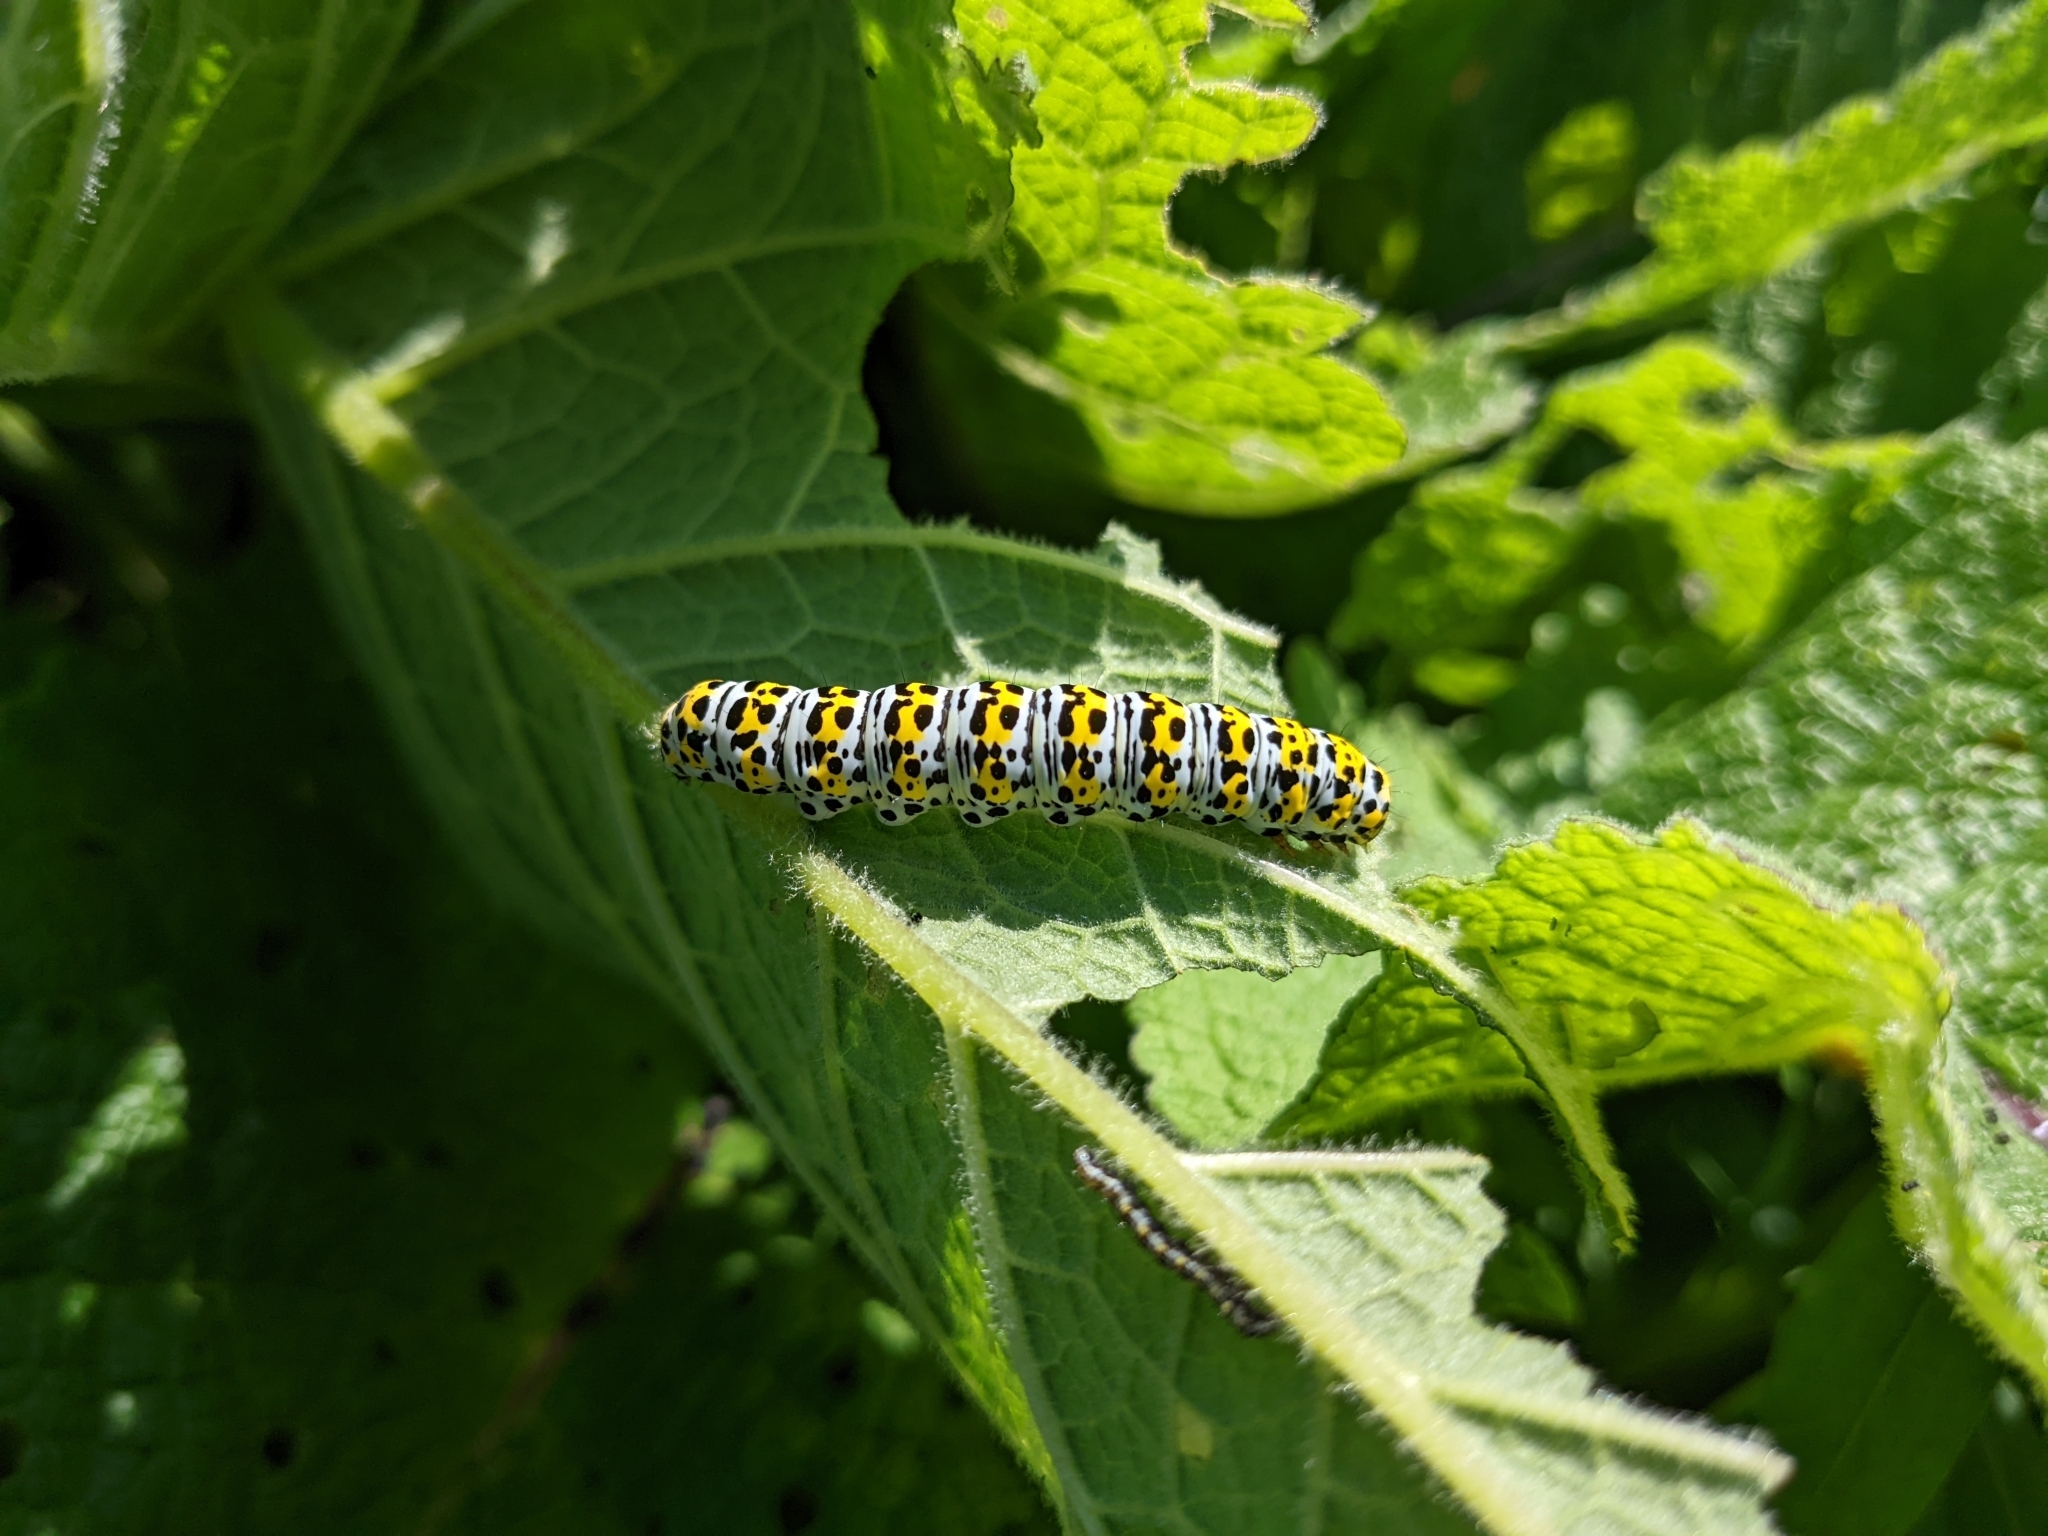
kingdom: Animalia
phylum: Arthropoda
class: Insecta
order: Lepidoptera
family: Noctuidae
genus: Cucullia
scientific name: Cucullia verbasci
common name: Mullein
